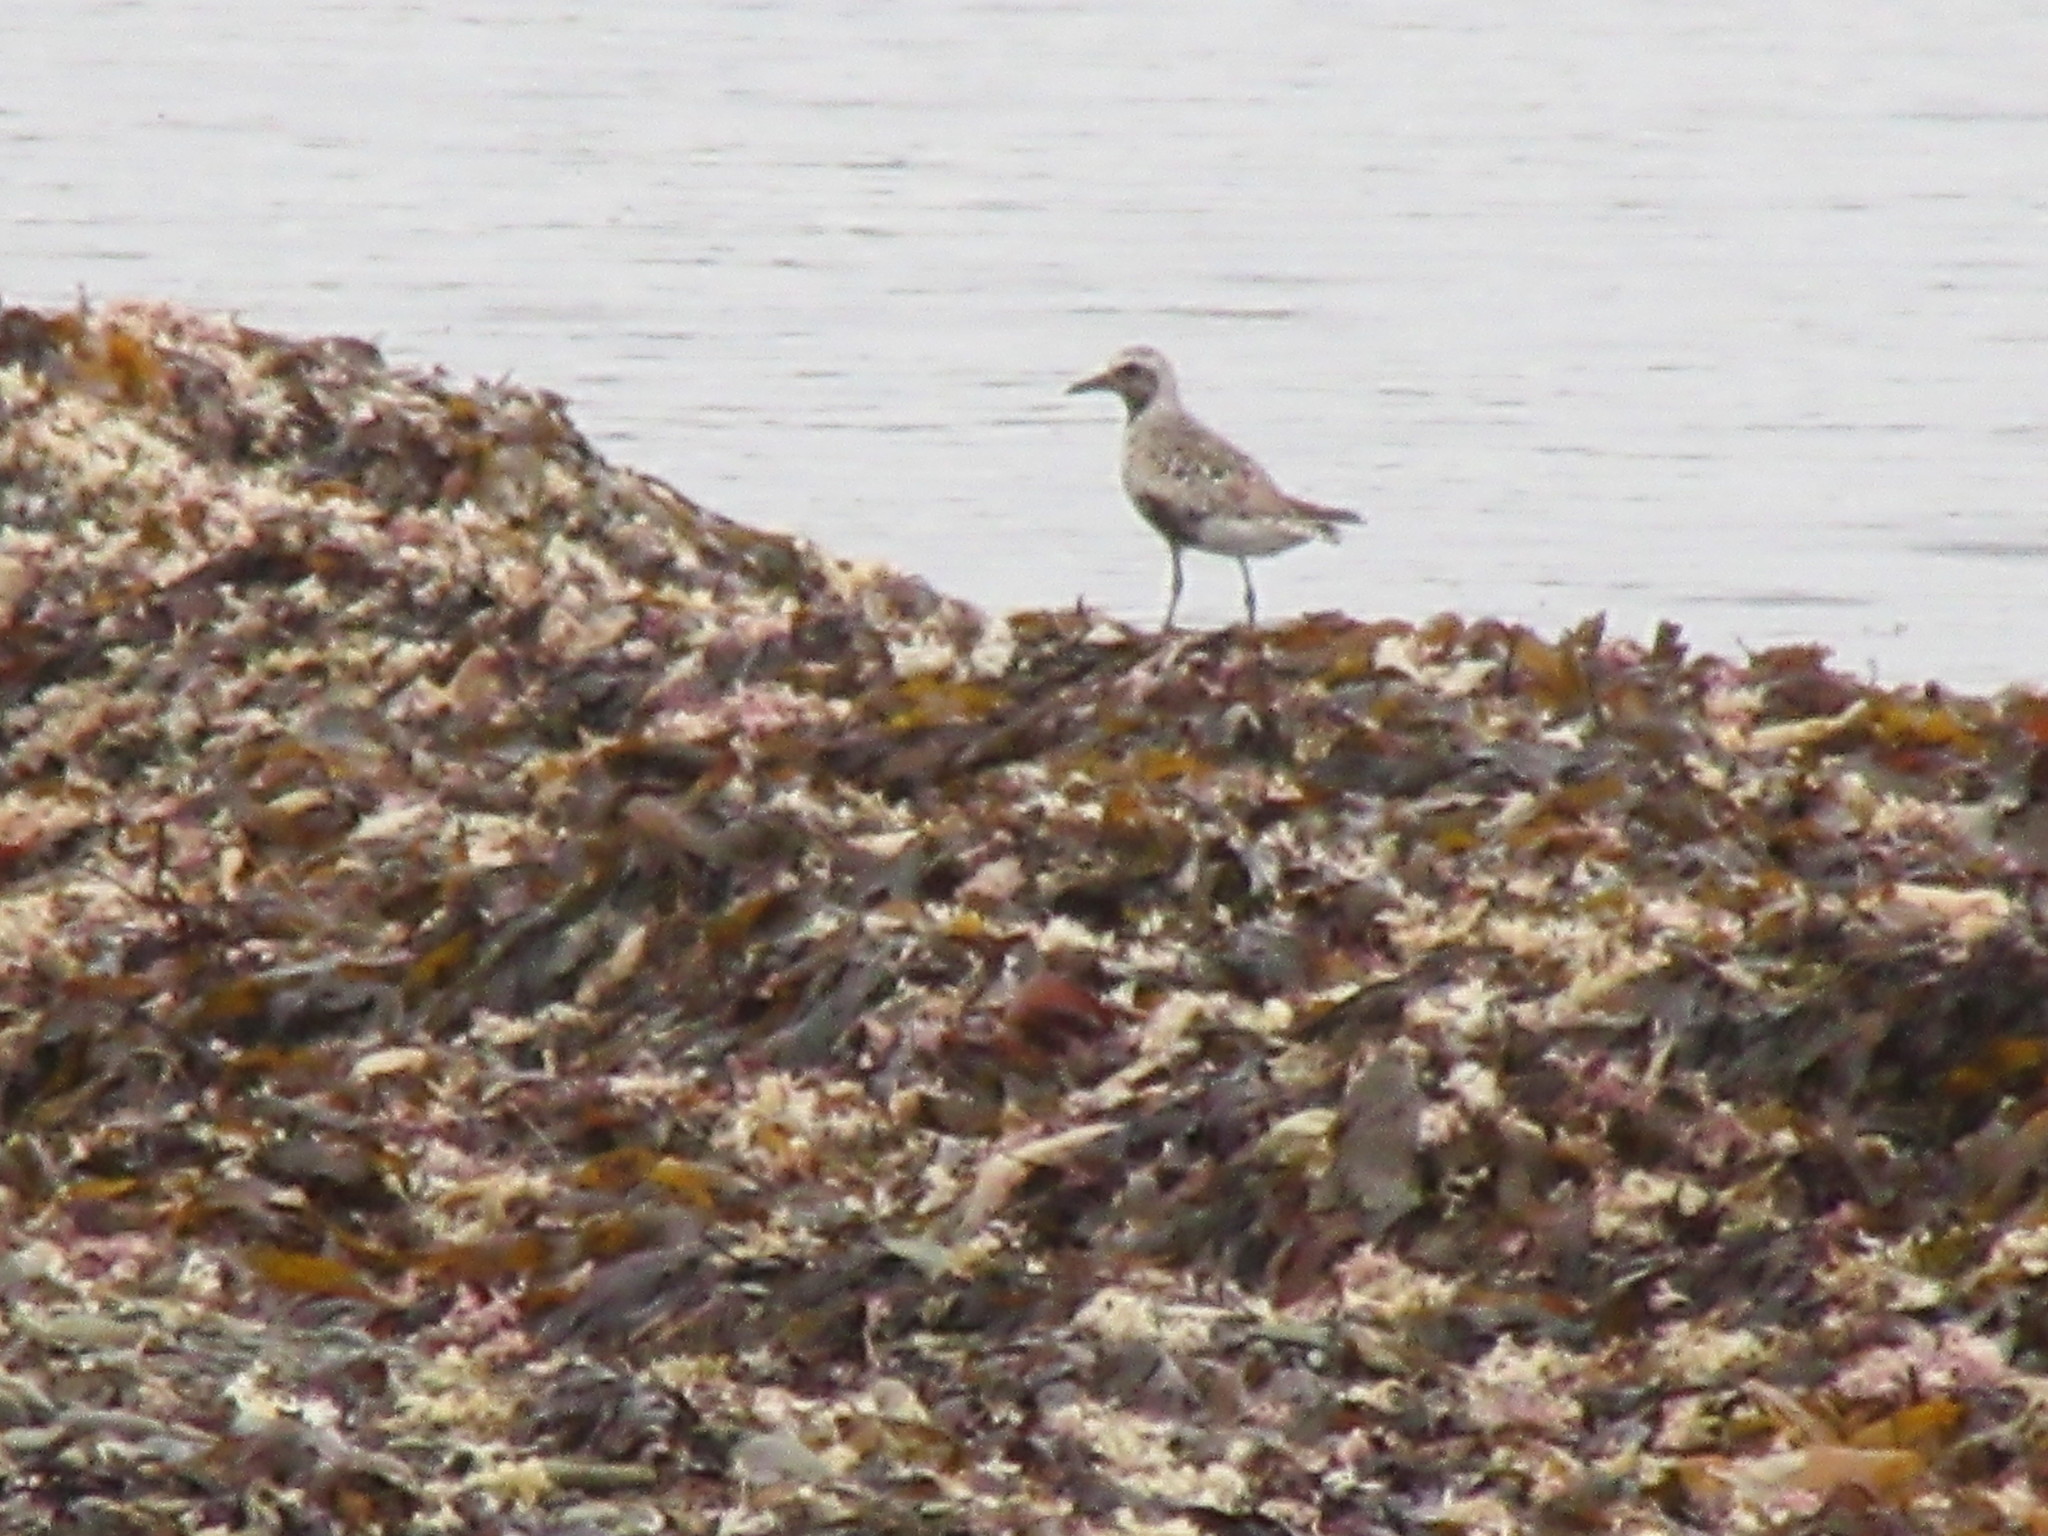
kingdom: Animalia
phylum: Chordata
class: Aves
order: Charadriiformes
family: Charadriidae
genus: Pluvialis
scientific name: Pluvialis squatarola
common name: Grey plover
